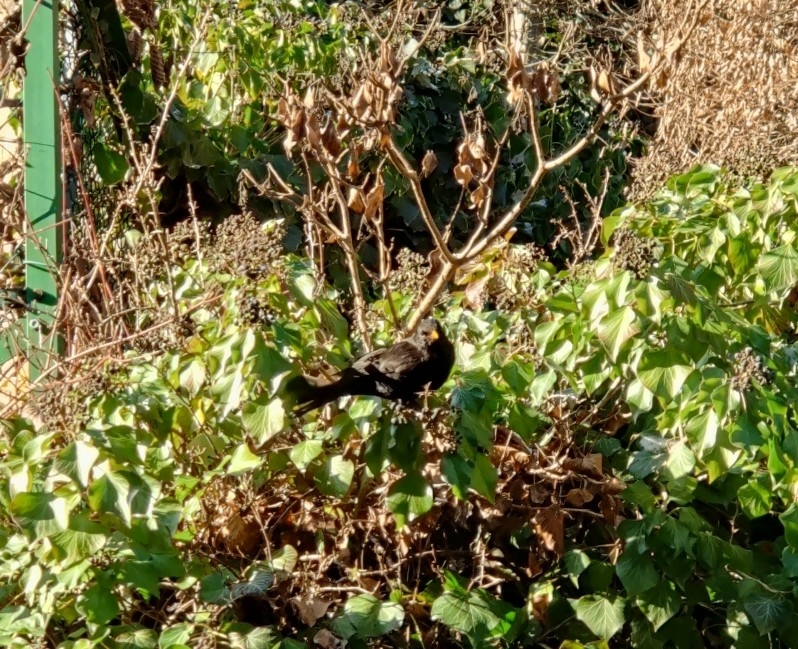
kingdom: Animalia
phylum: Chordata
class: Aves
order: Passeriformes
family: Turdidae
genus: Turdus
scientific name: Turdus merula
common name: Common blackbird
